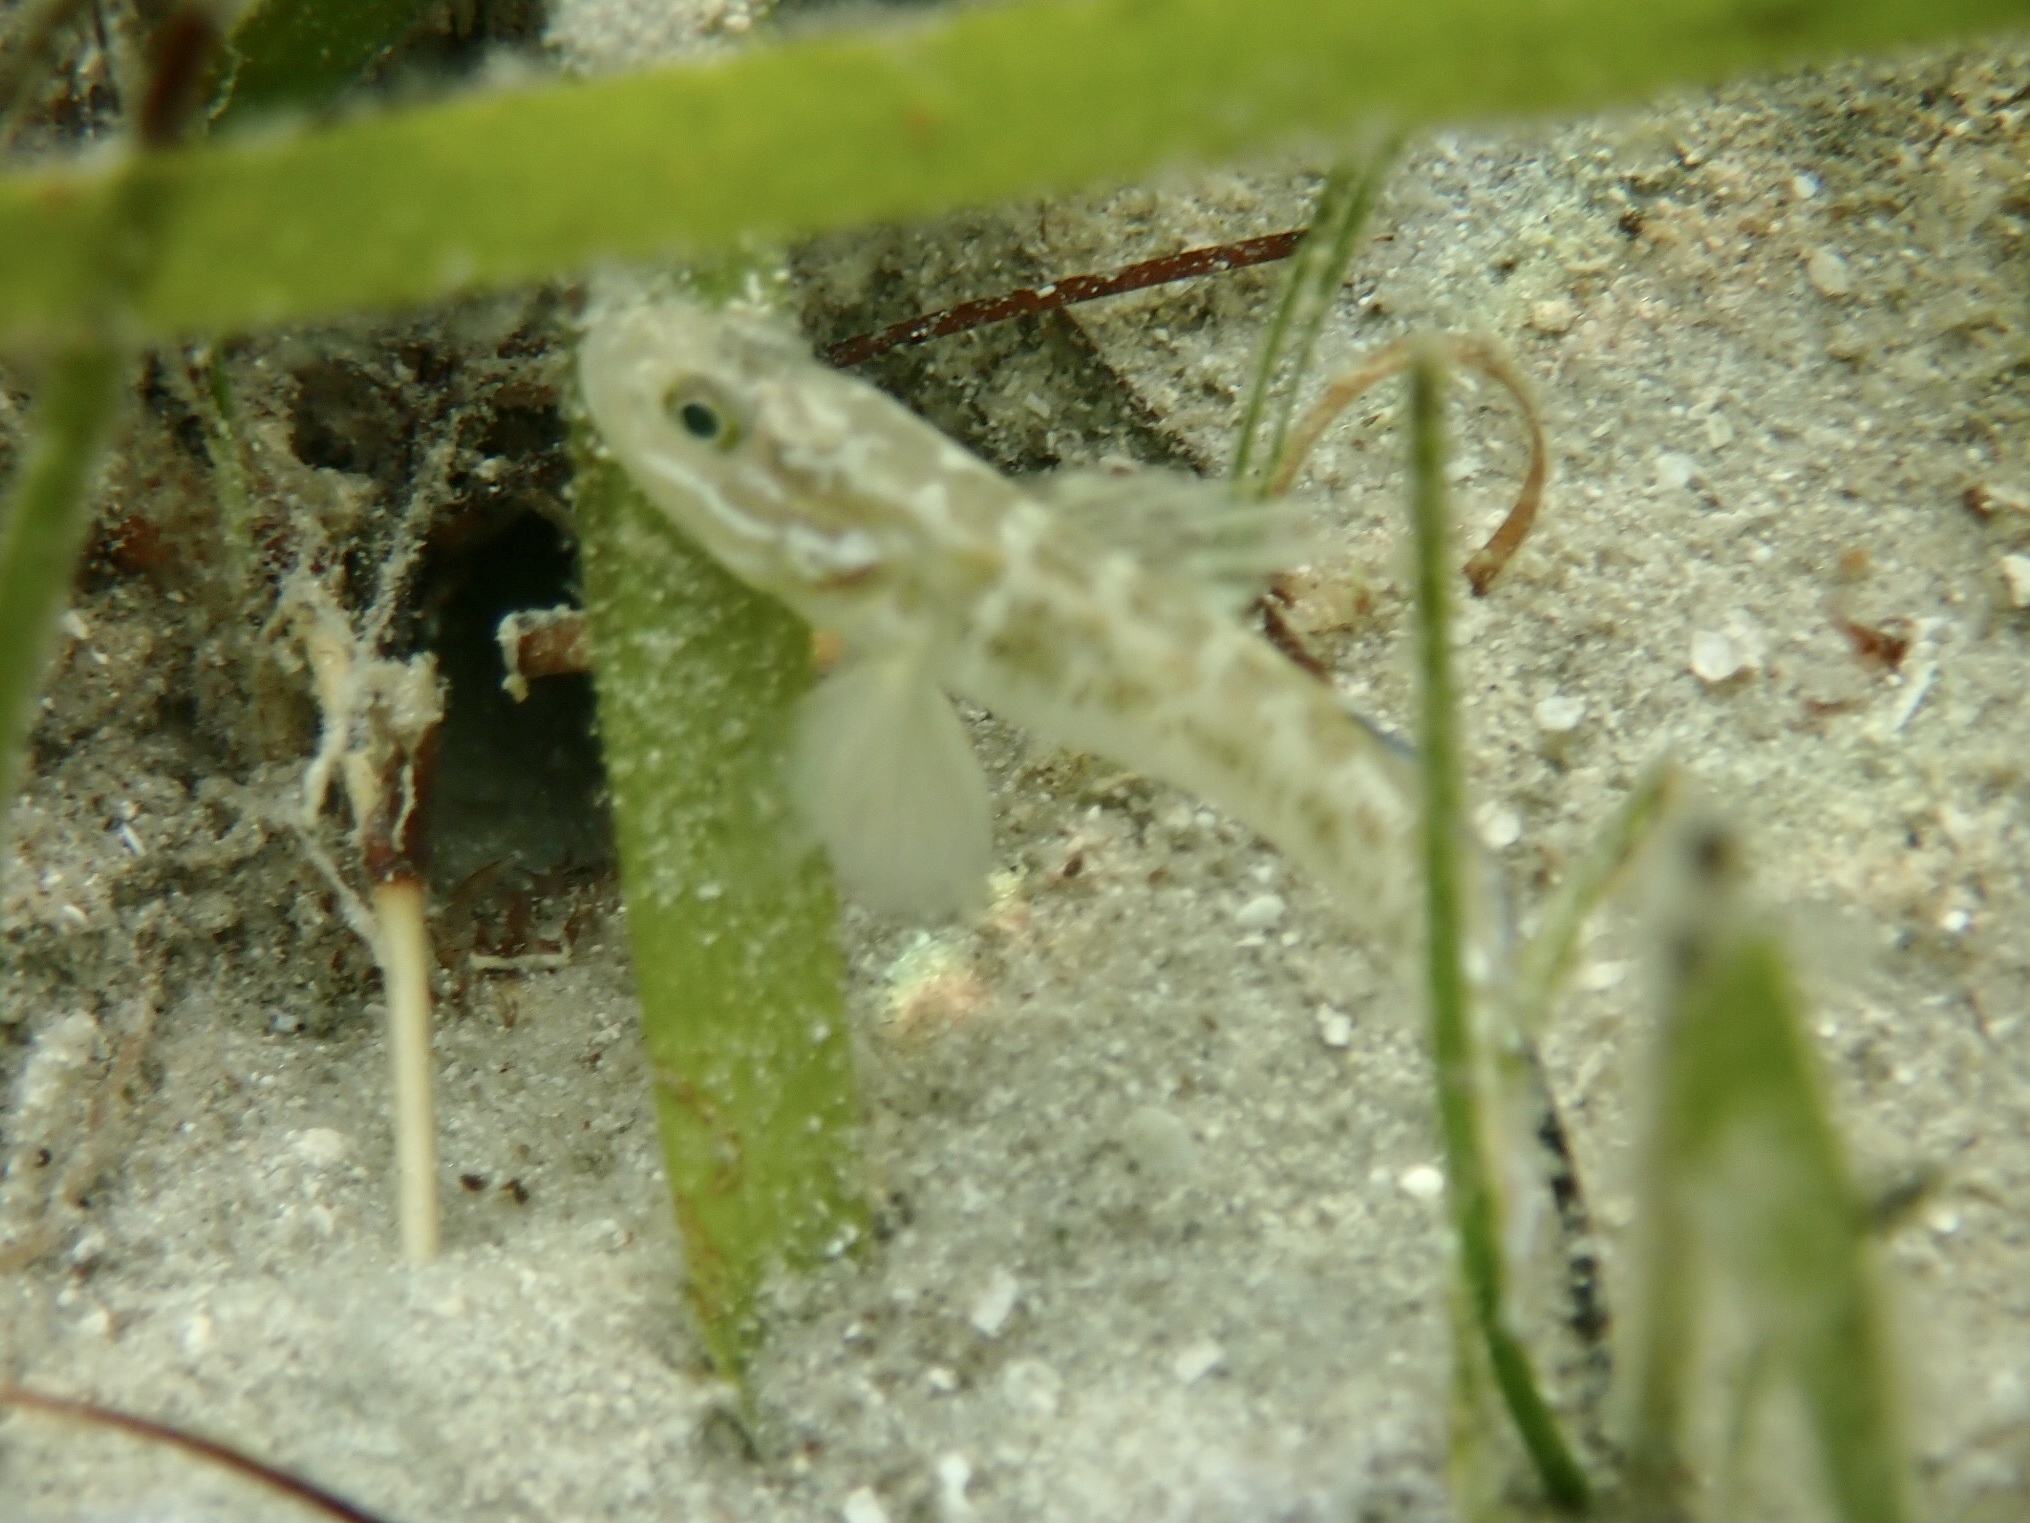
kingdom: Animalia
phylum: Chordata
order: Perciformes
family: Gobiidae
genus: Microgobius
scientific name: Microgobius gulosus
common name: Clown goby
